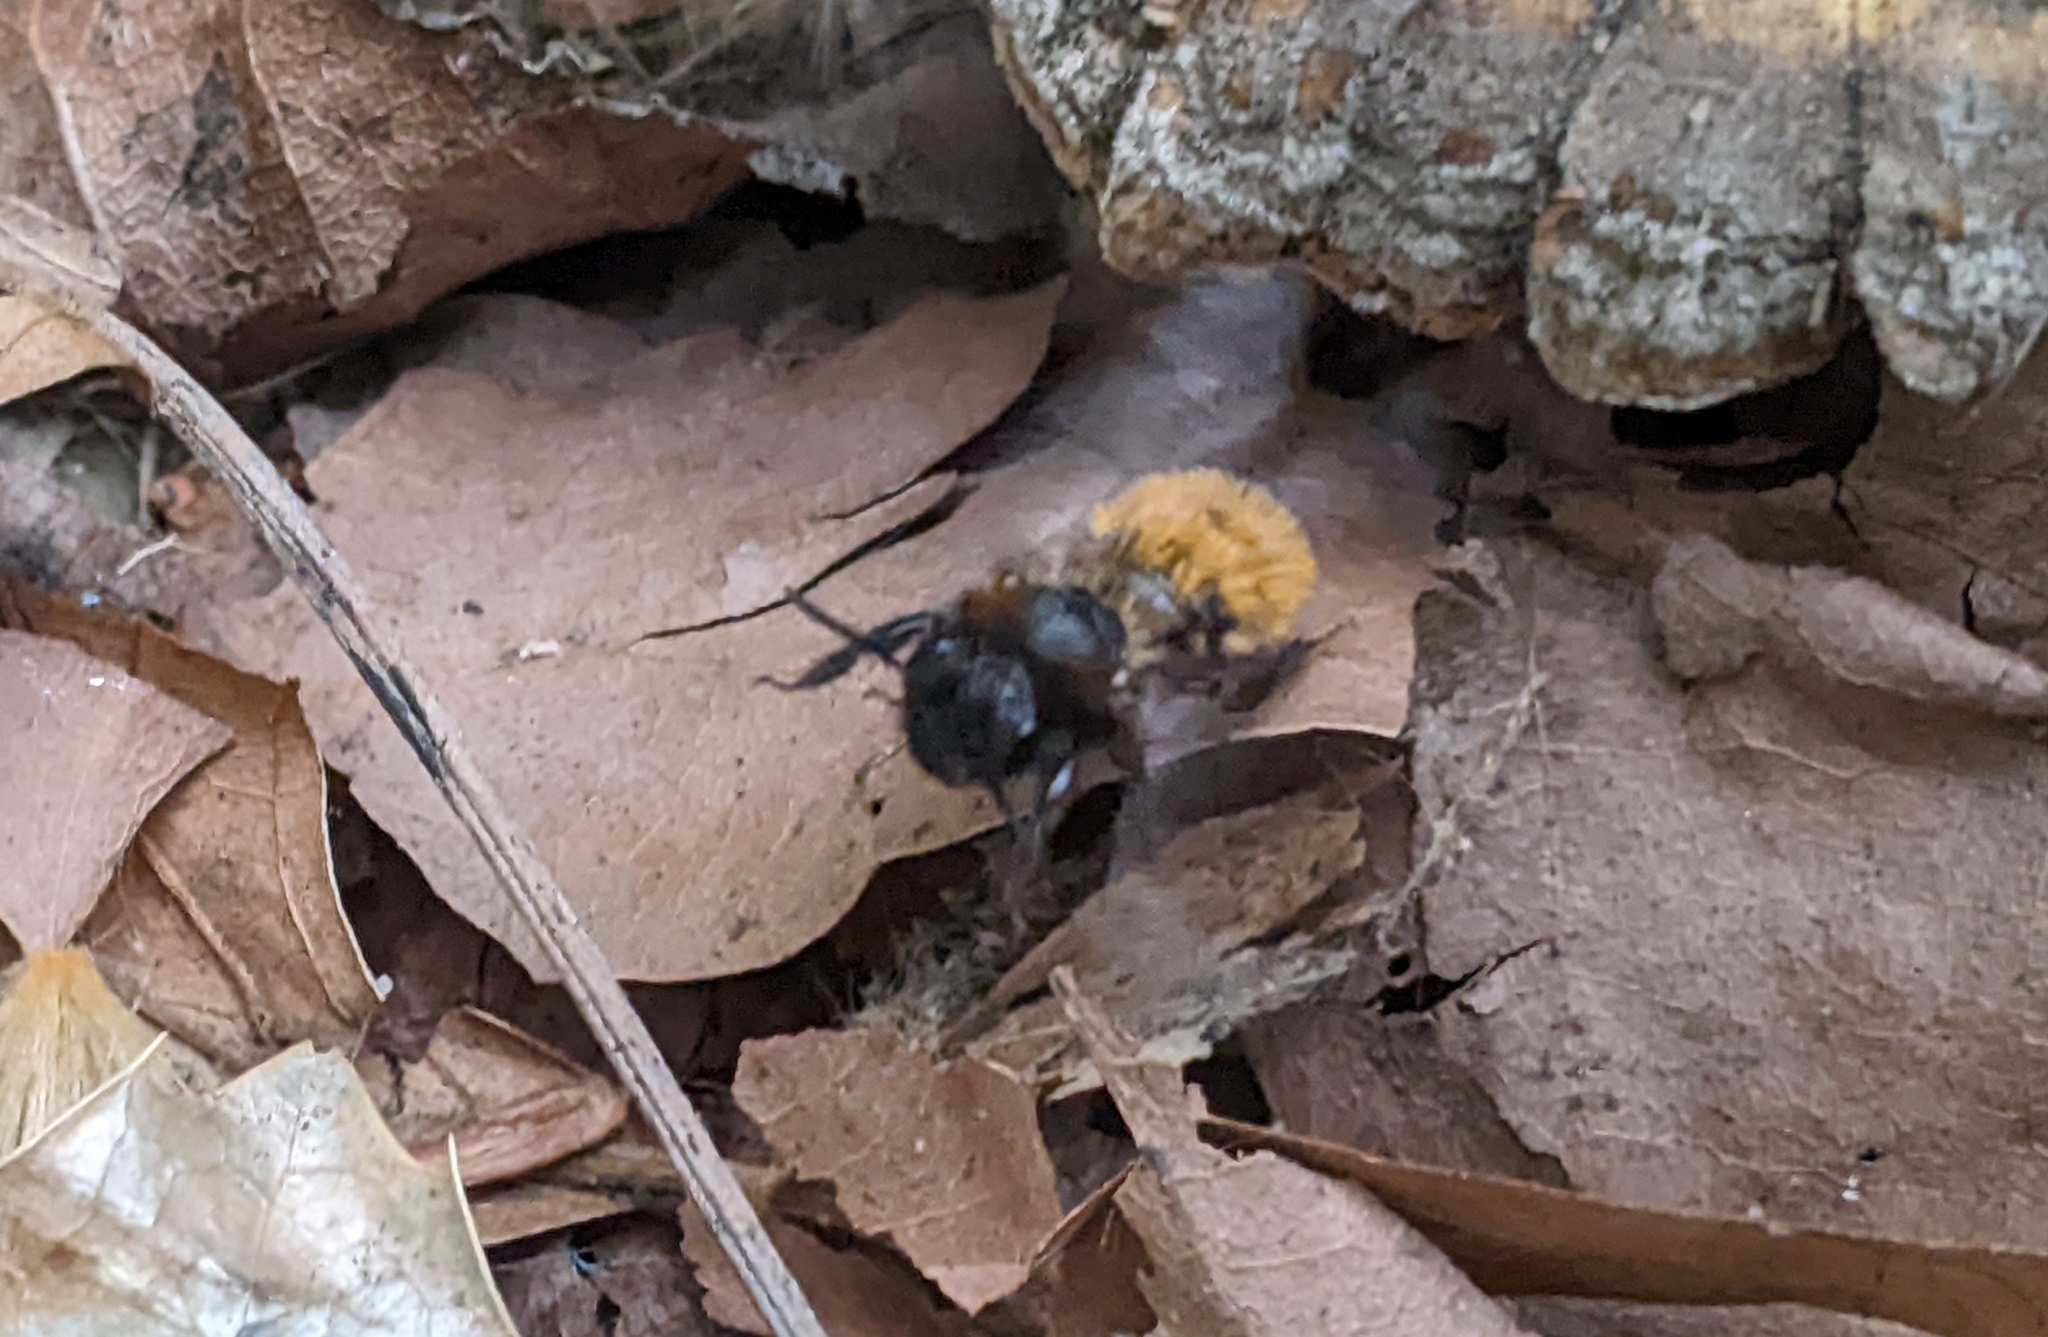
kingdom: Animalia
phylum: Arthropoda
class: Insecta
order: Hymenoptera
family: Andrenidae
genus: Andrena
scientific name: Andrena fulva
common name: Tawny mining bee
